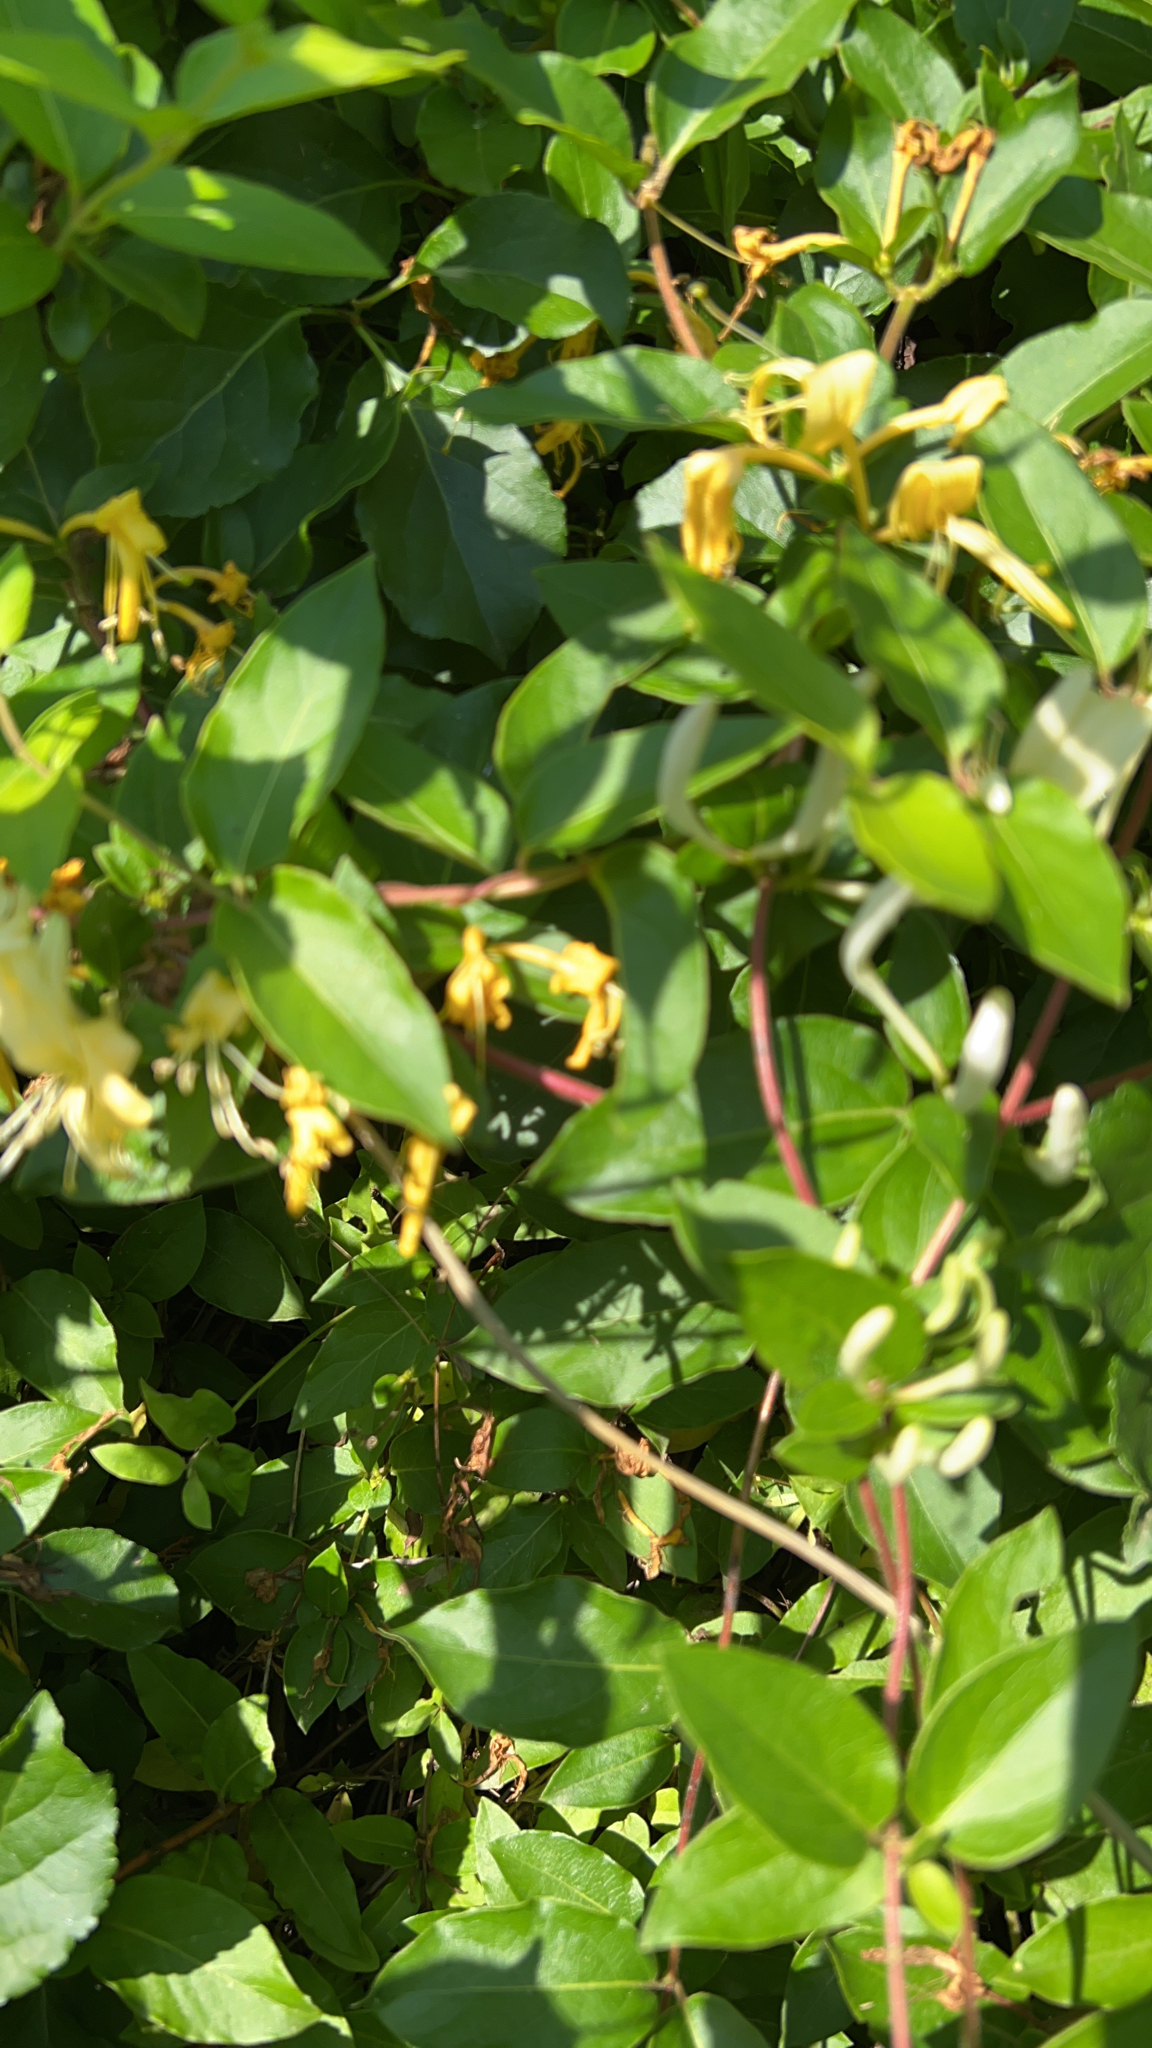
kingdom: Plantae
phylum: Tracheophyta
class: Magnoliopsida
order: Dipsacales
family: Caprifoliaceae
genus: Lonicera
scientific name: Lonicera japonica
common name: Japanese honeysuckle
